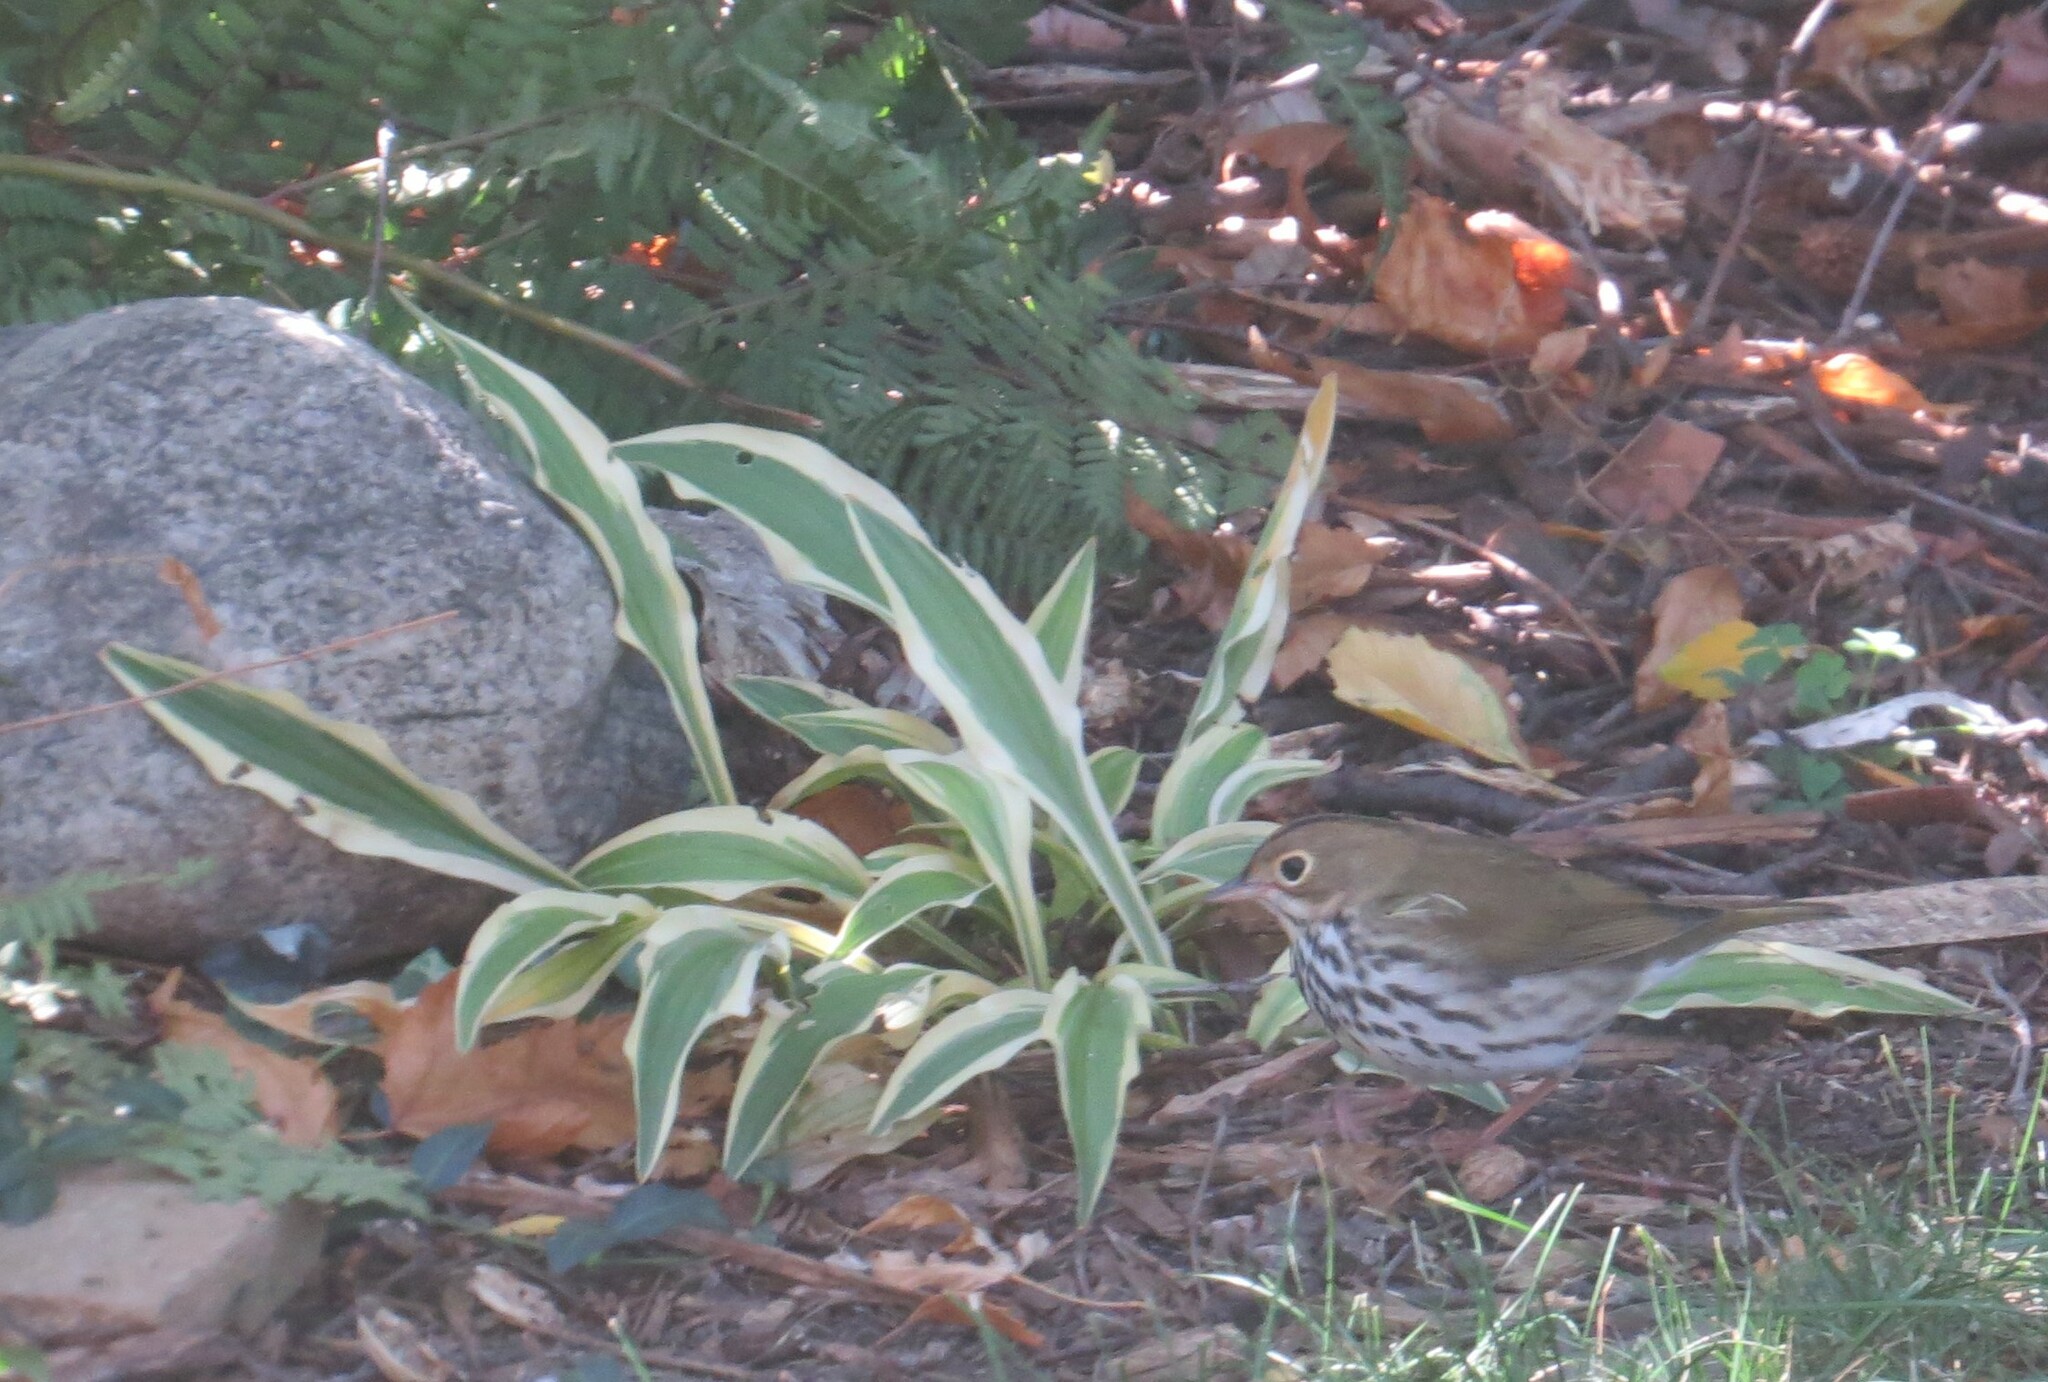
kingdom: Animalia
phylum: Chordata
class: Aves
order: Passeriformes
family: Parulidae
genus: Seiurus
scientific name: Seiurus aurocapilla
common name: Ovenbird
